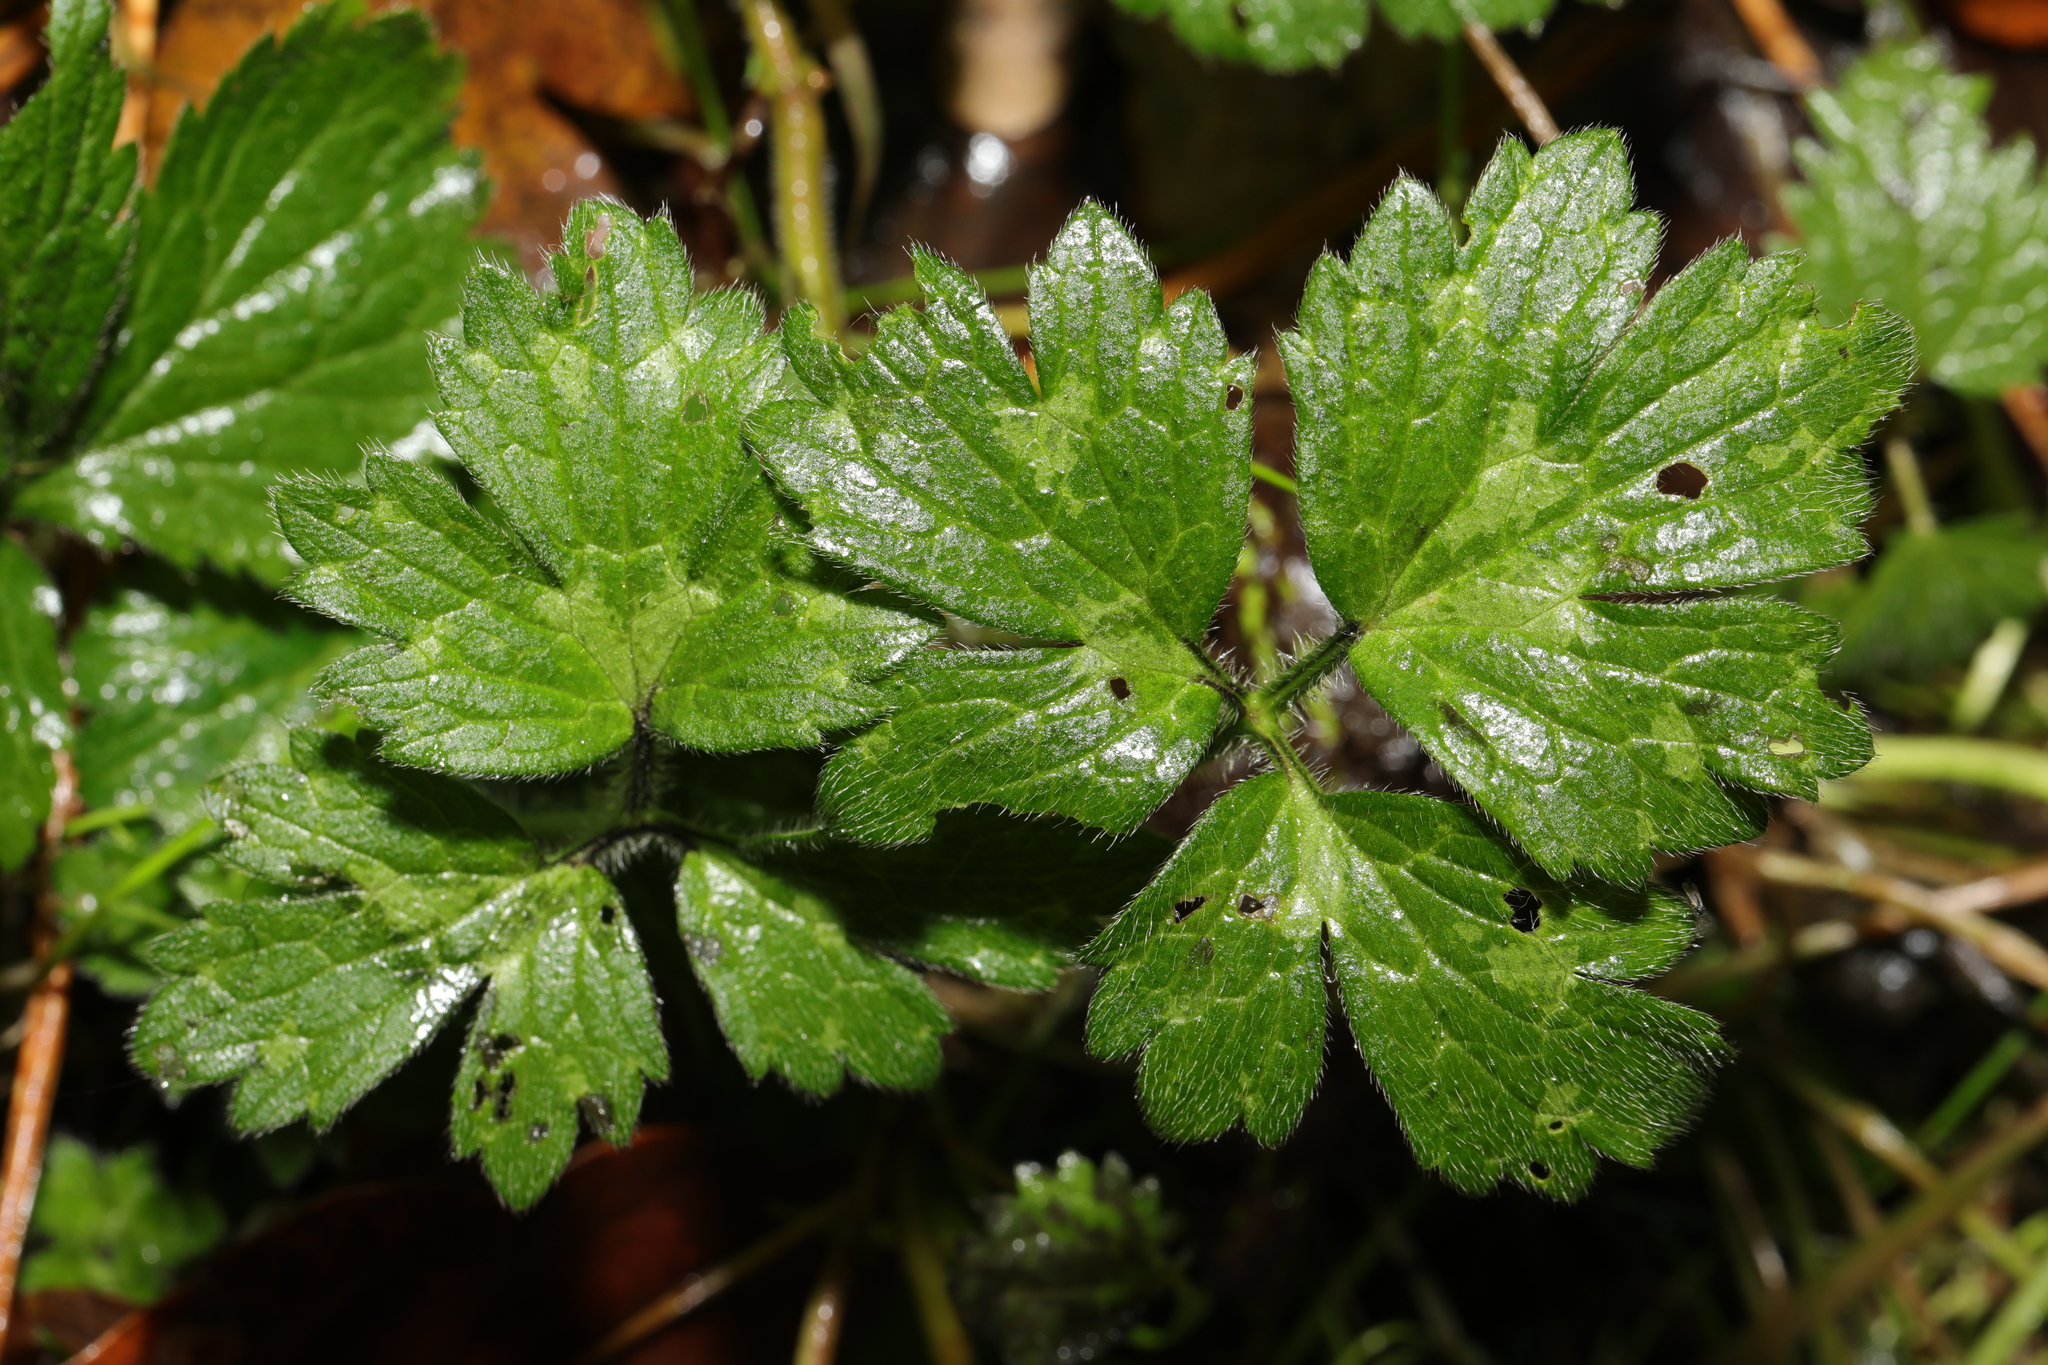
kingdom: Plantae
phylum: Tracheophyta
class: Magnoliopsida
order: Ranunculales
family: Ranunculaceae
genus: Ranunculus
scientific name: Ranunculus repens
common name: Creeping buttercup
